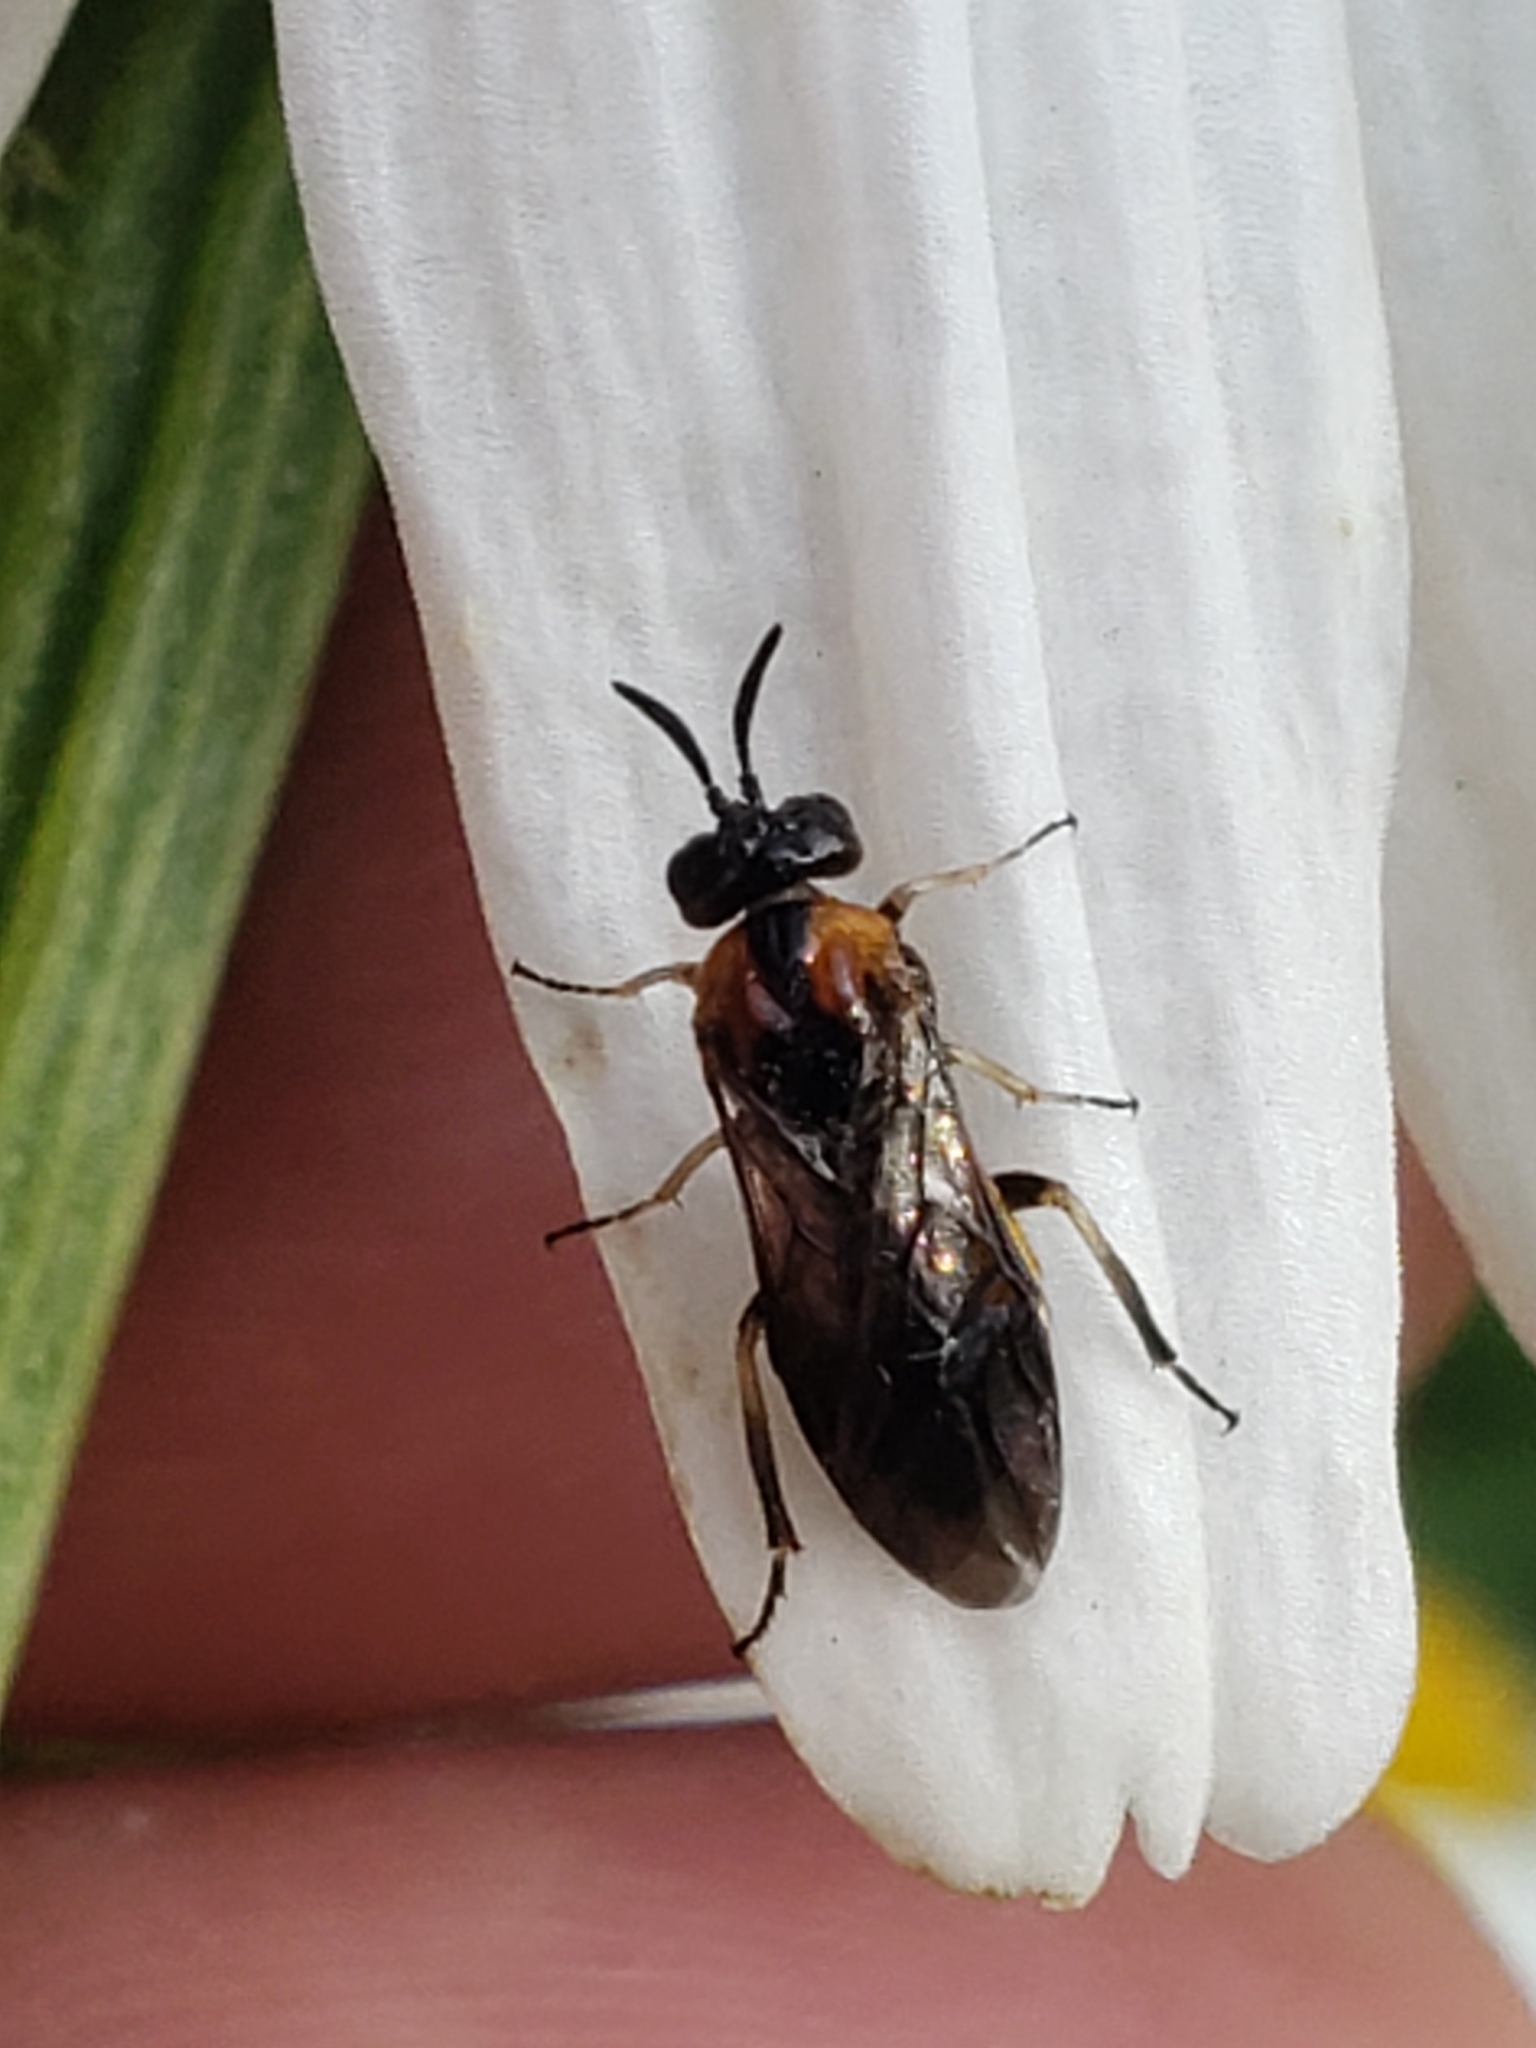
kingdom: Animalia
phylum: Arthropoda
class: Insecta
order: Hymenoptera
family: Argidae
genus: Schizocerella
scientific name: Schizocerella
